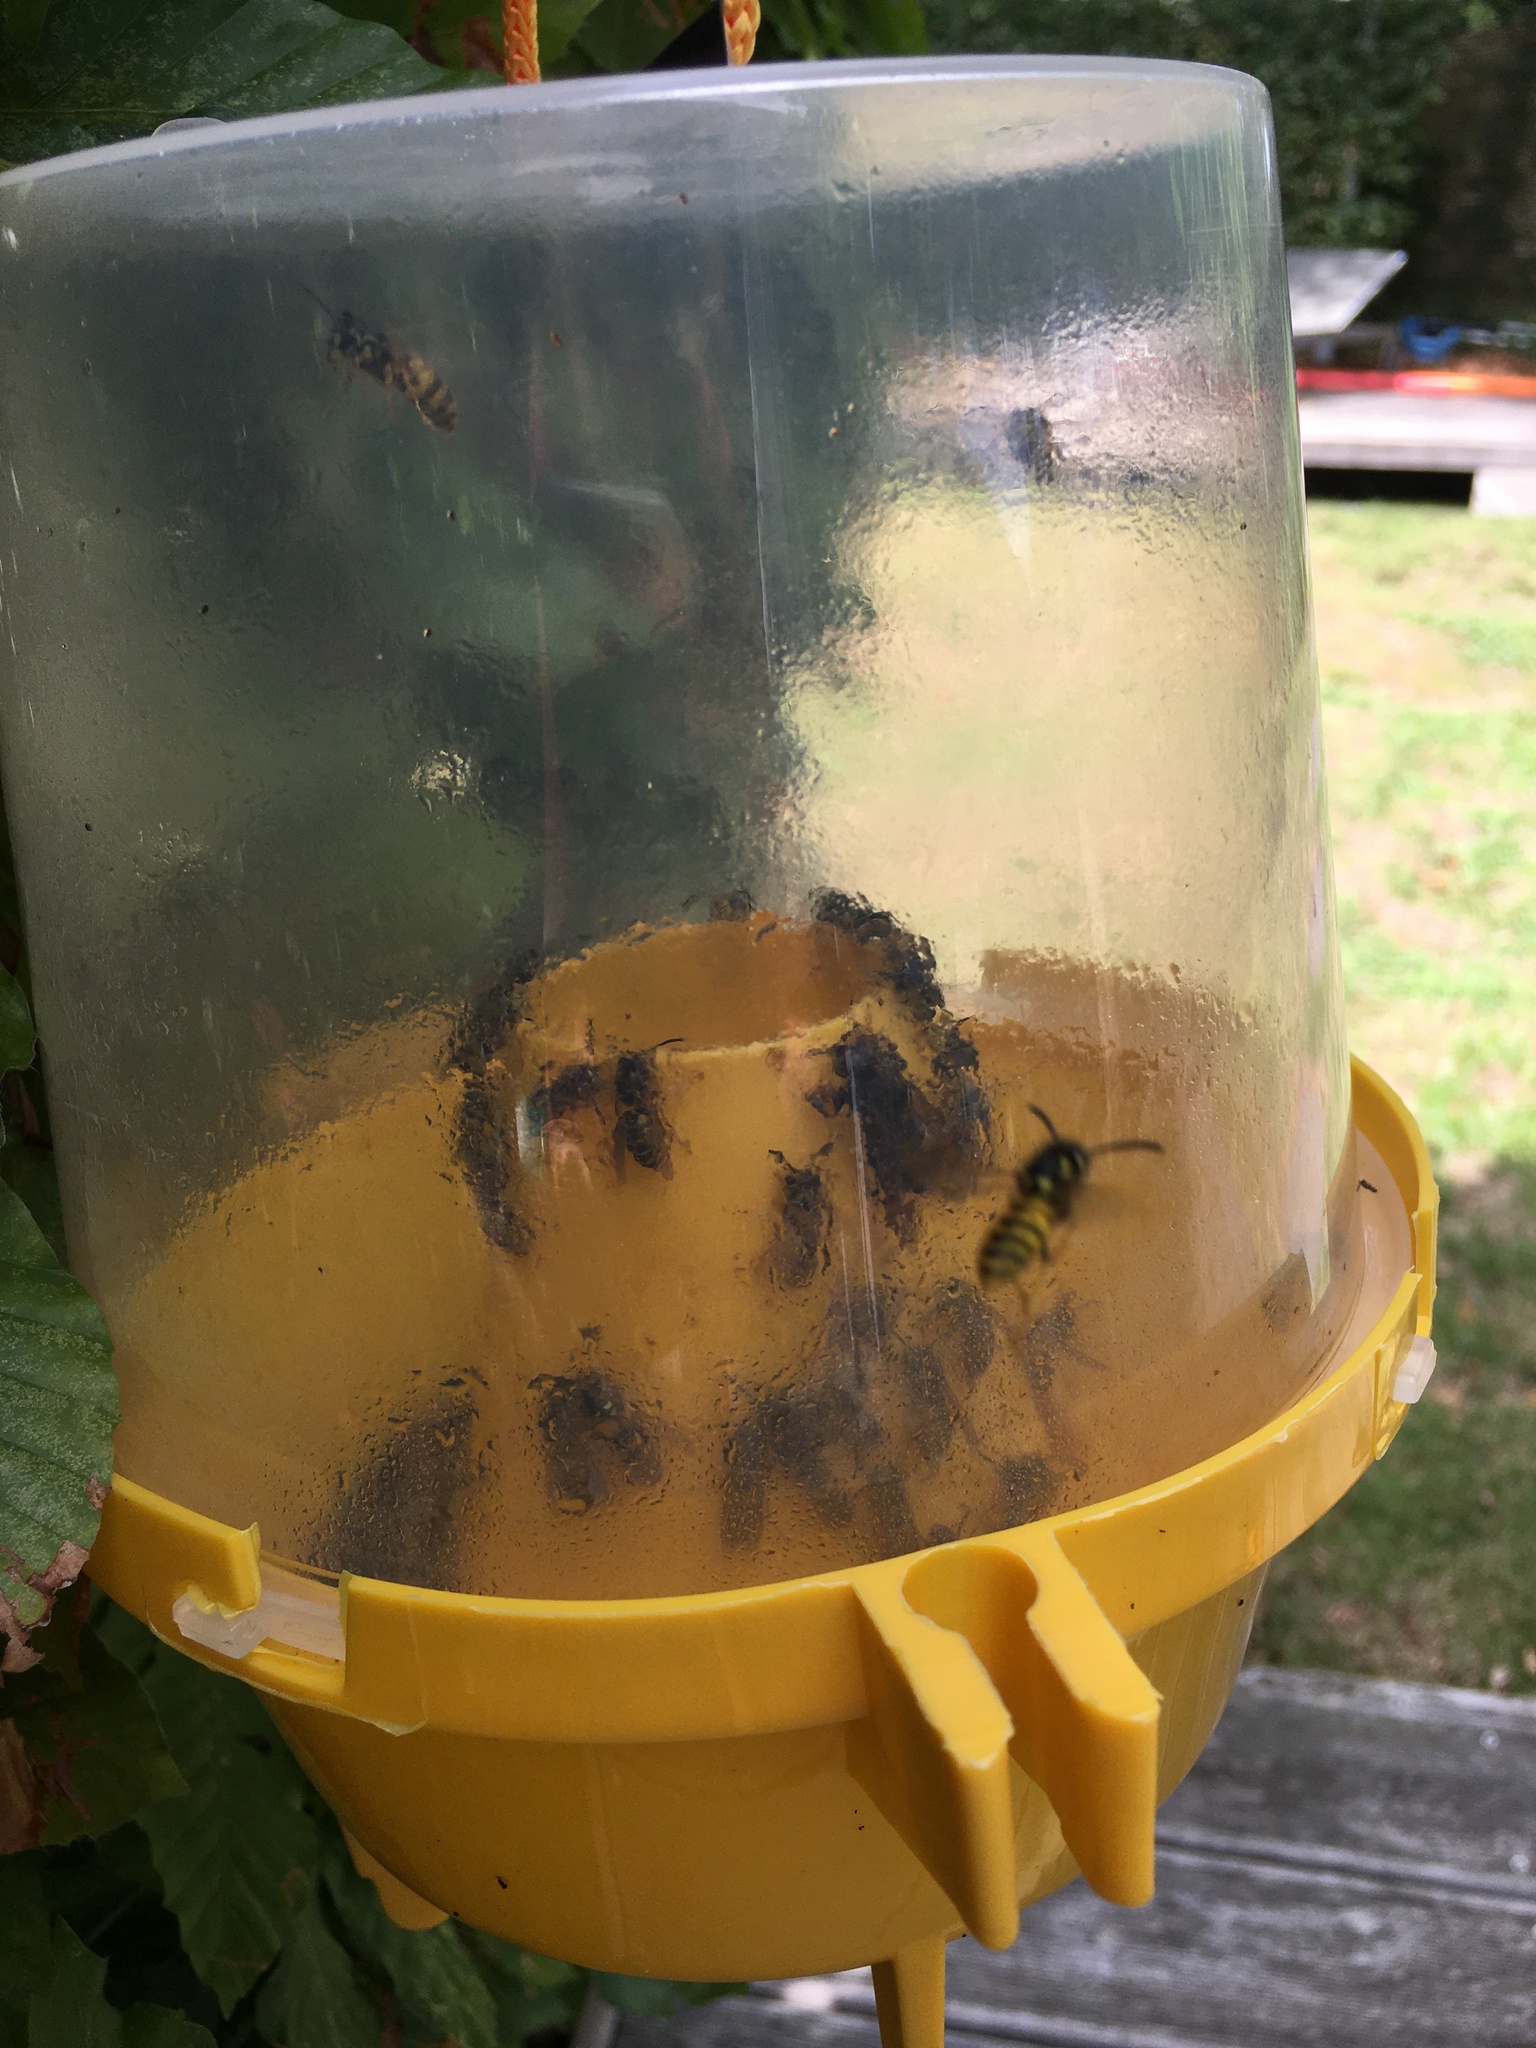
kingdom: Animalia
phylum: Arthropoda
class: Insecta
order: Hymenoptera
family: Vespidae
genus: Vespa
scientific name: Vespa velutina
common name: Asian hornet
